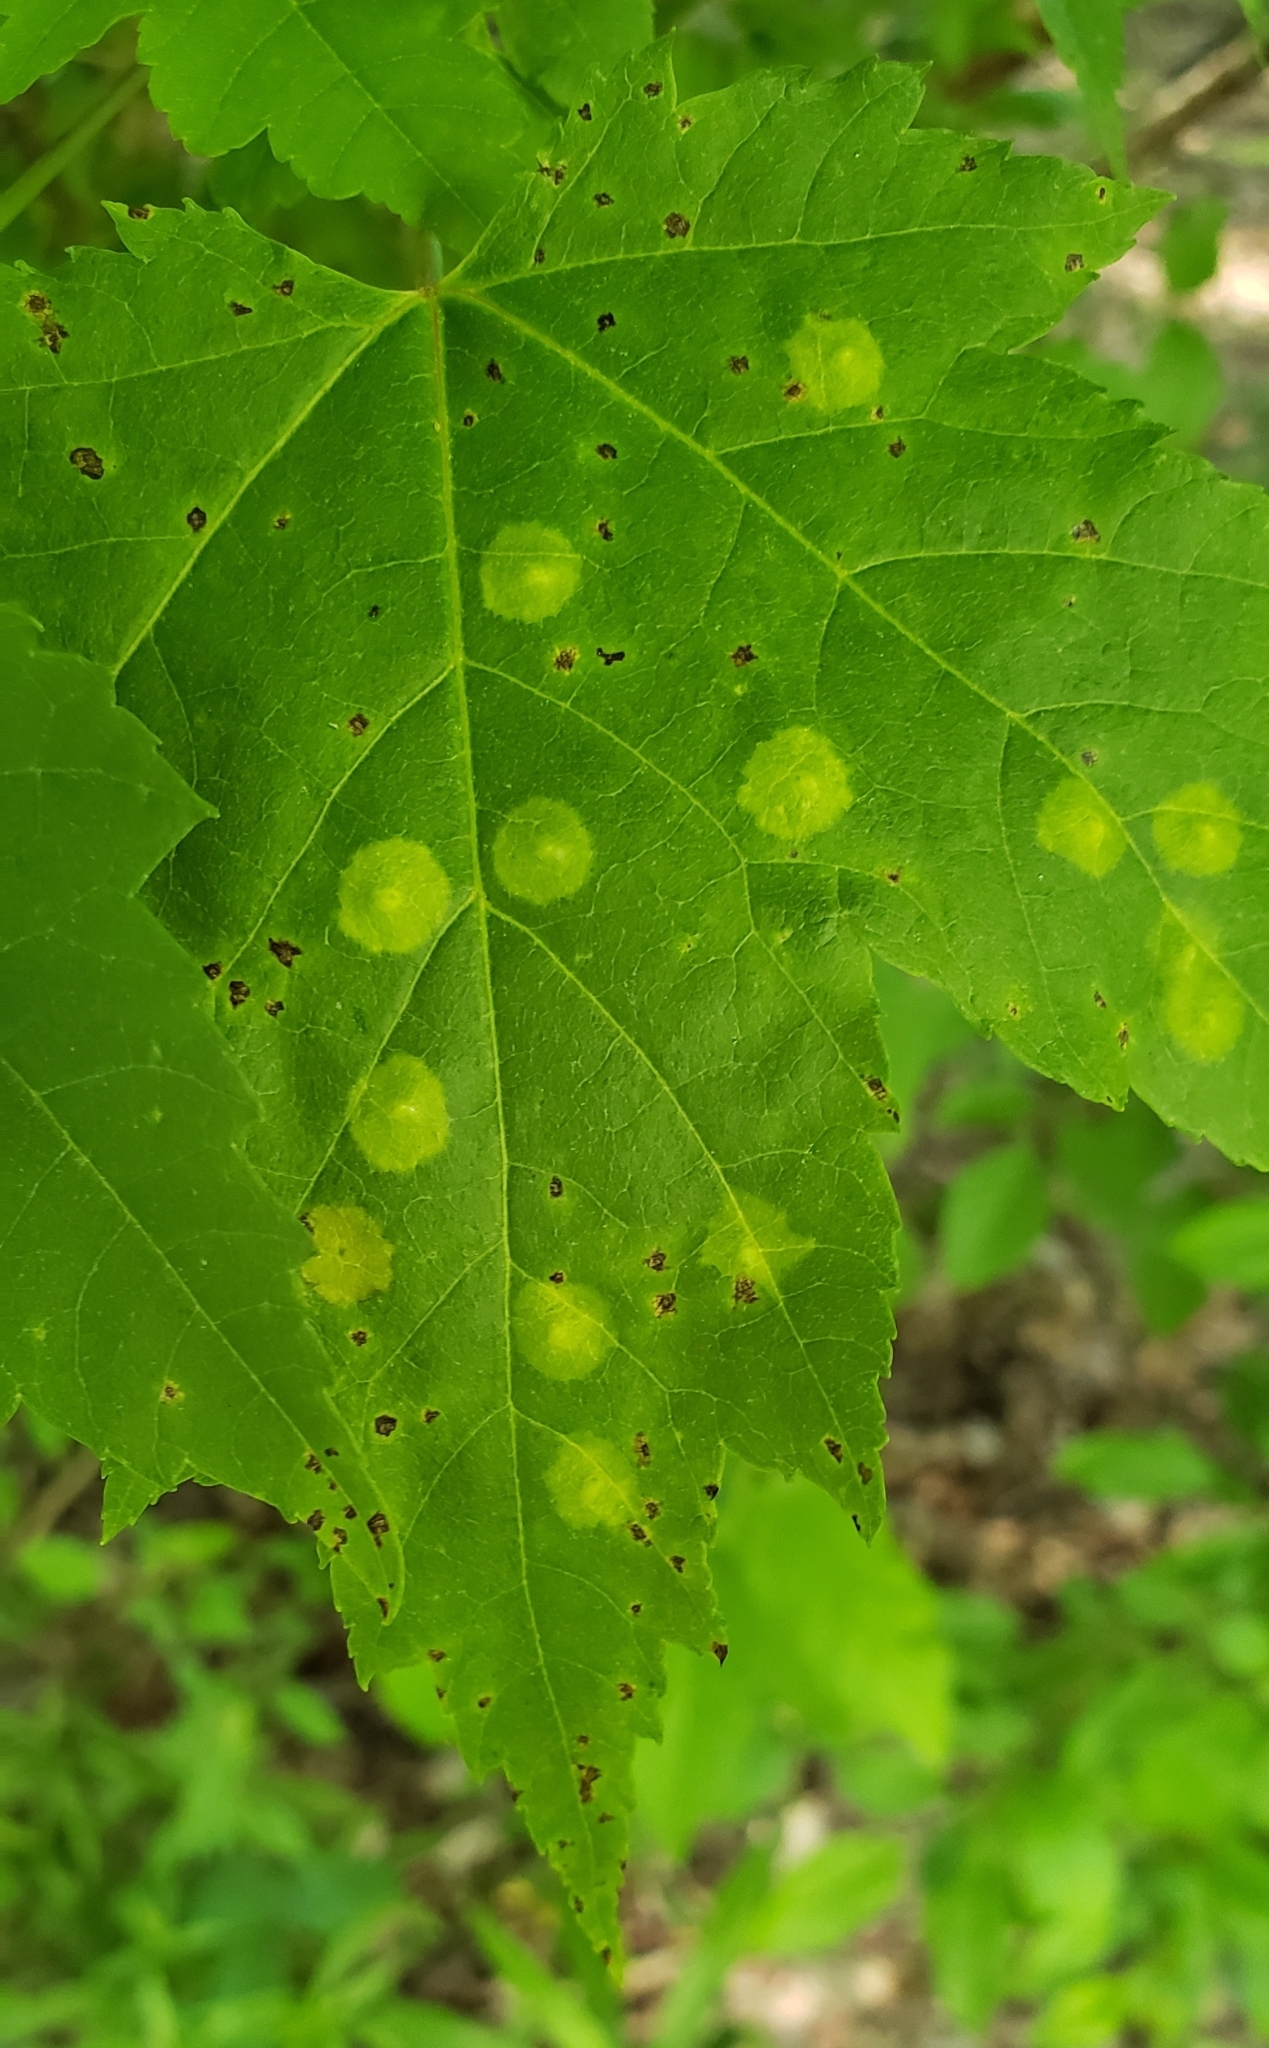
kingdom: Animalia
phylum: Arthropoda
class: Insecta
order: Diptera
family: Cecidomyiidae
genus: Acericecis
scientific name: Acericecis ocellaris
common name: Ocellate gall midge
